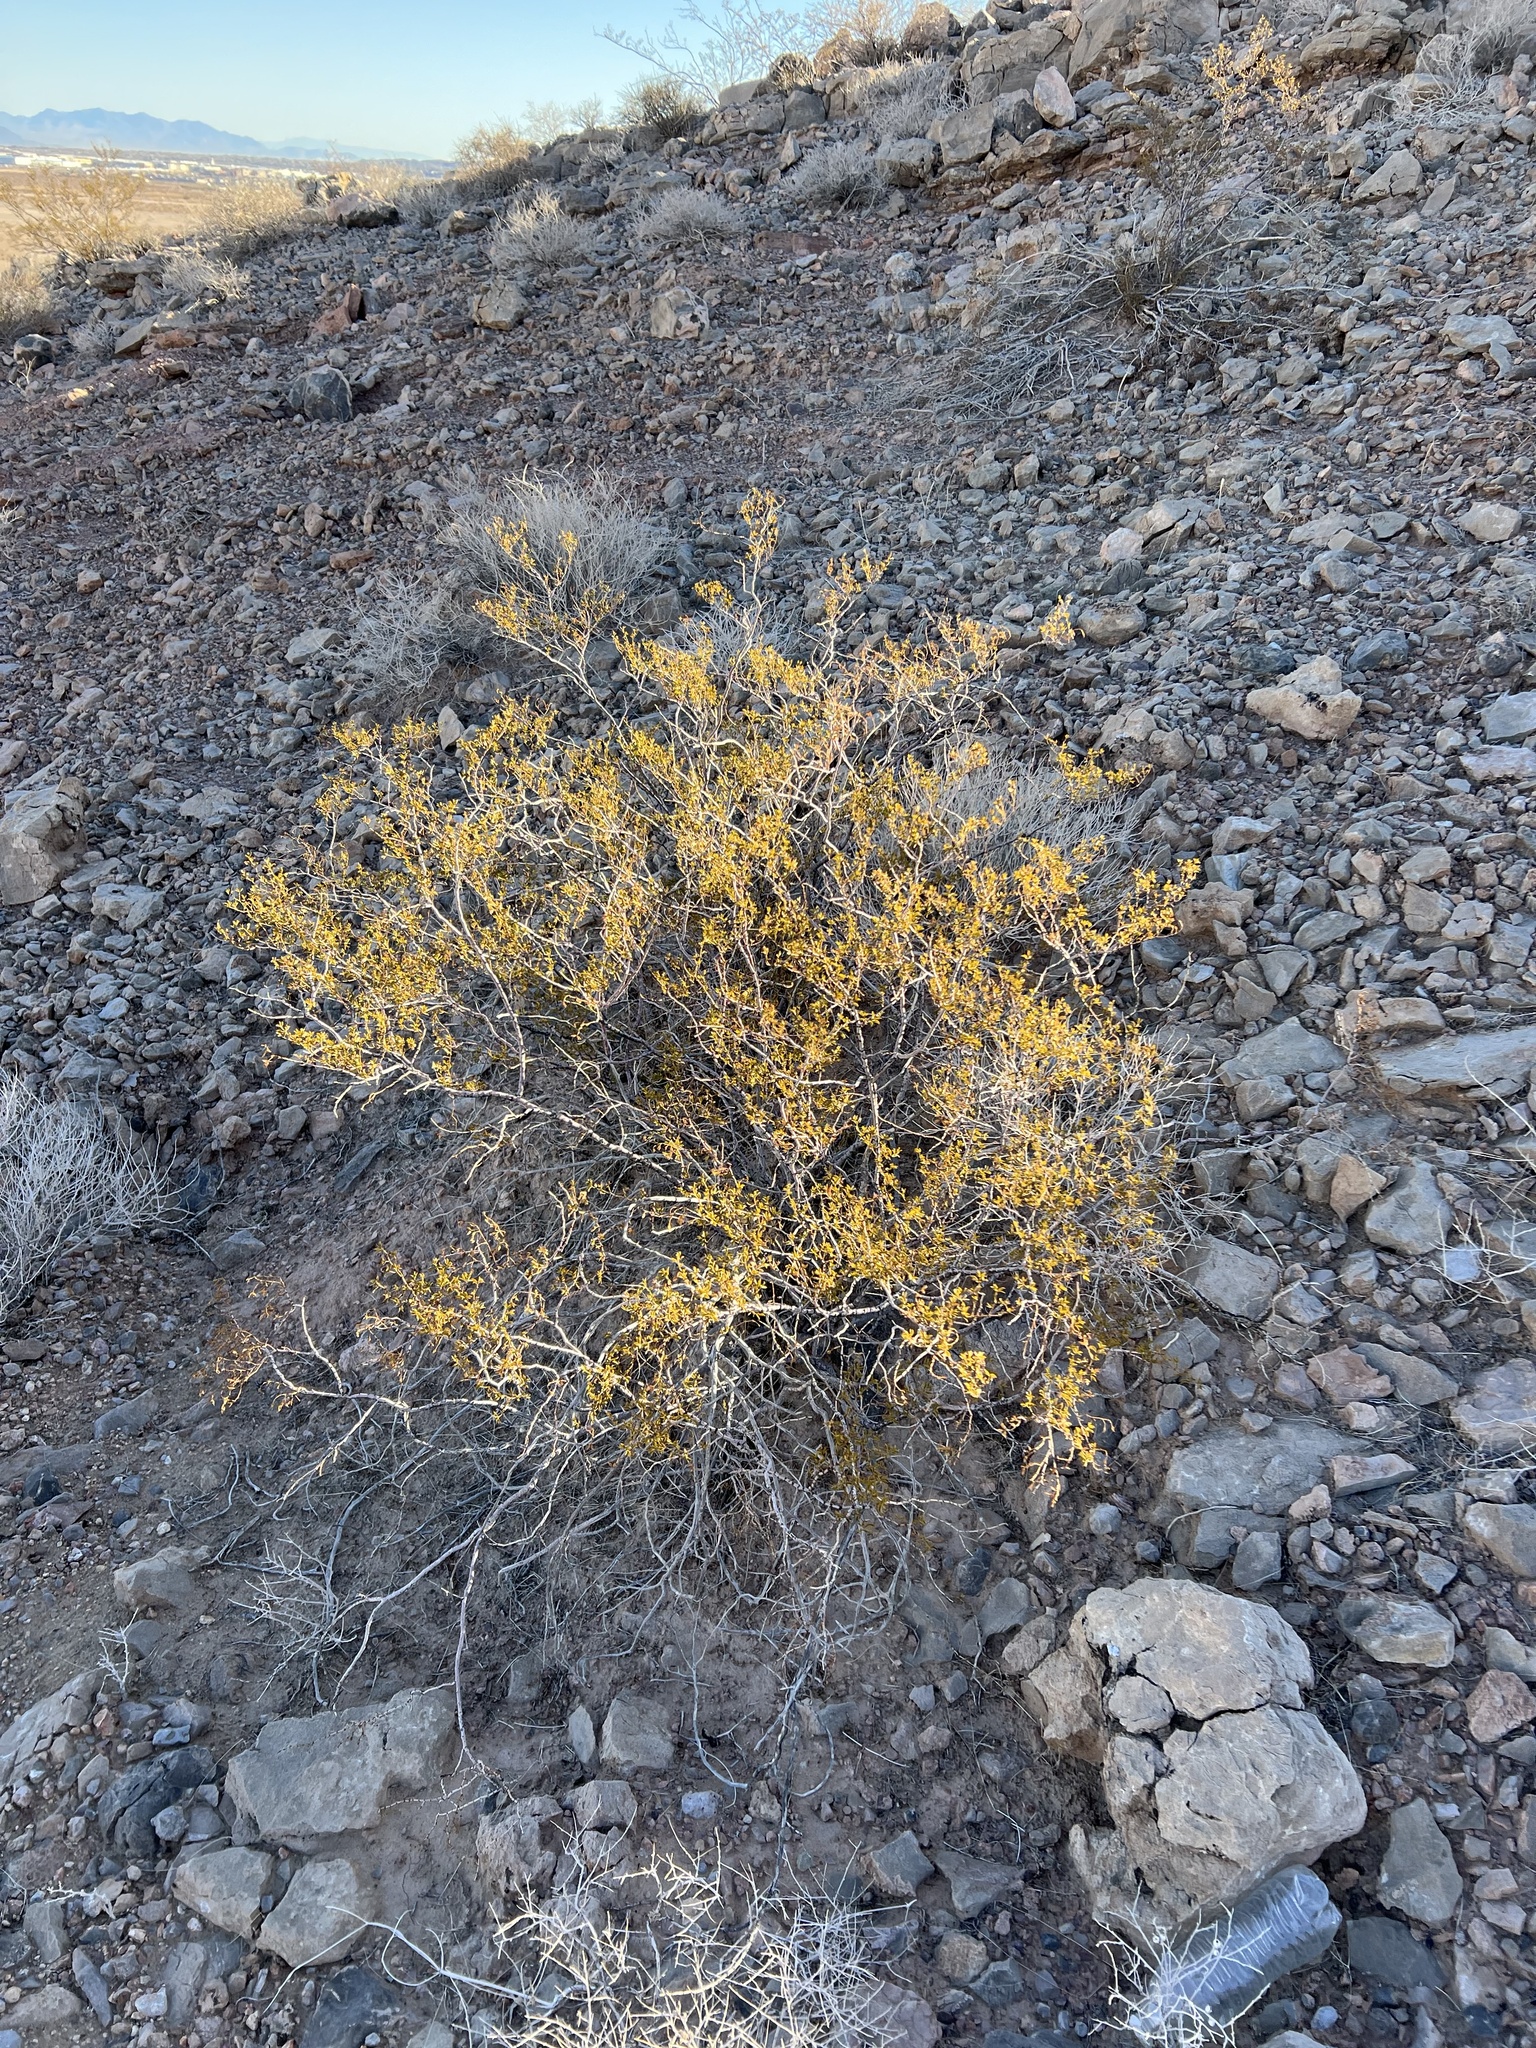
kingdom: Plantae
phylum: Tracheophyta
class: Magnoliopsida
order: Zygophyllales
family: Zygophyllaceae
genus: Larrea
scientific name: Larrea tridentata
